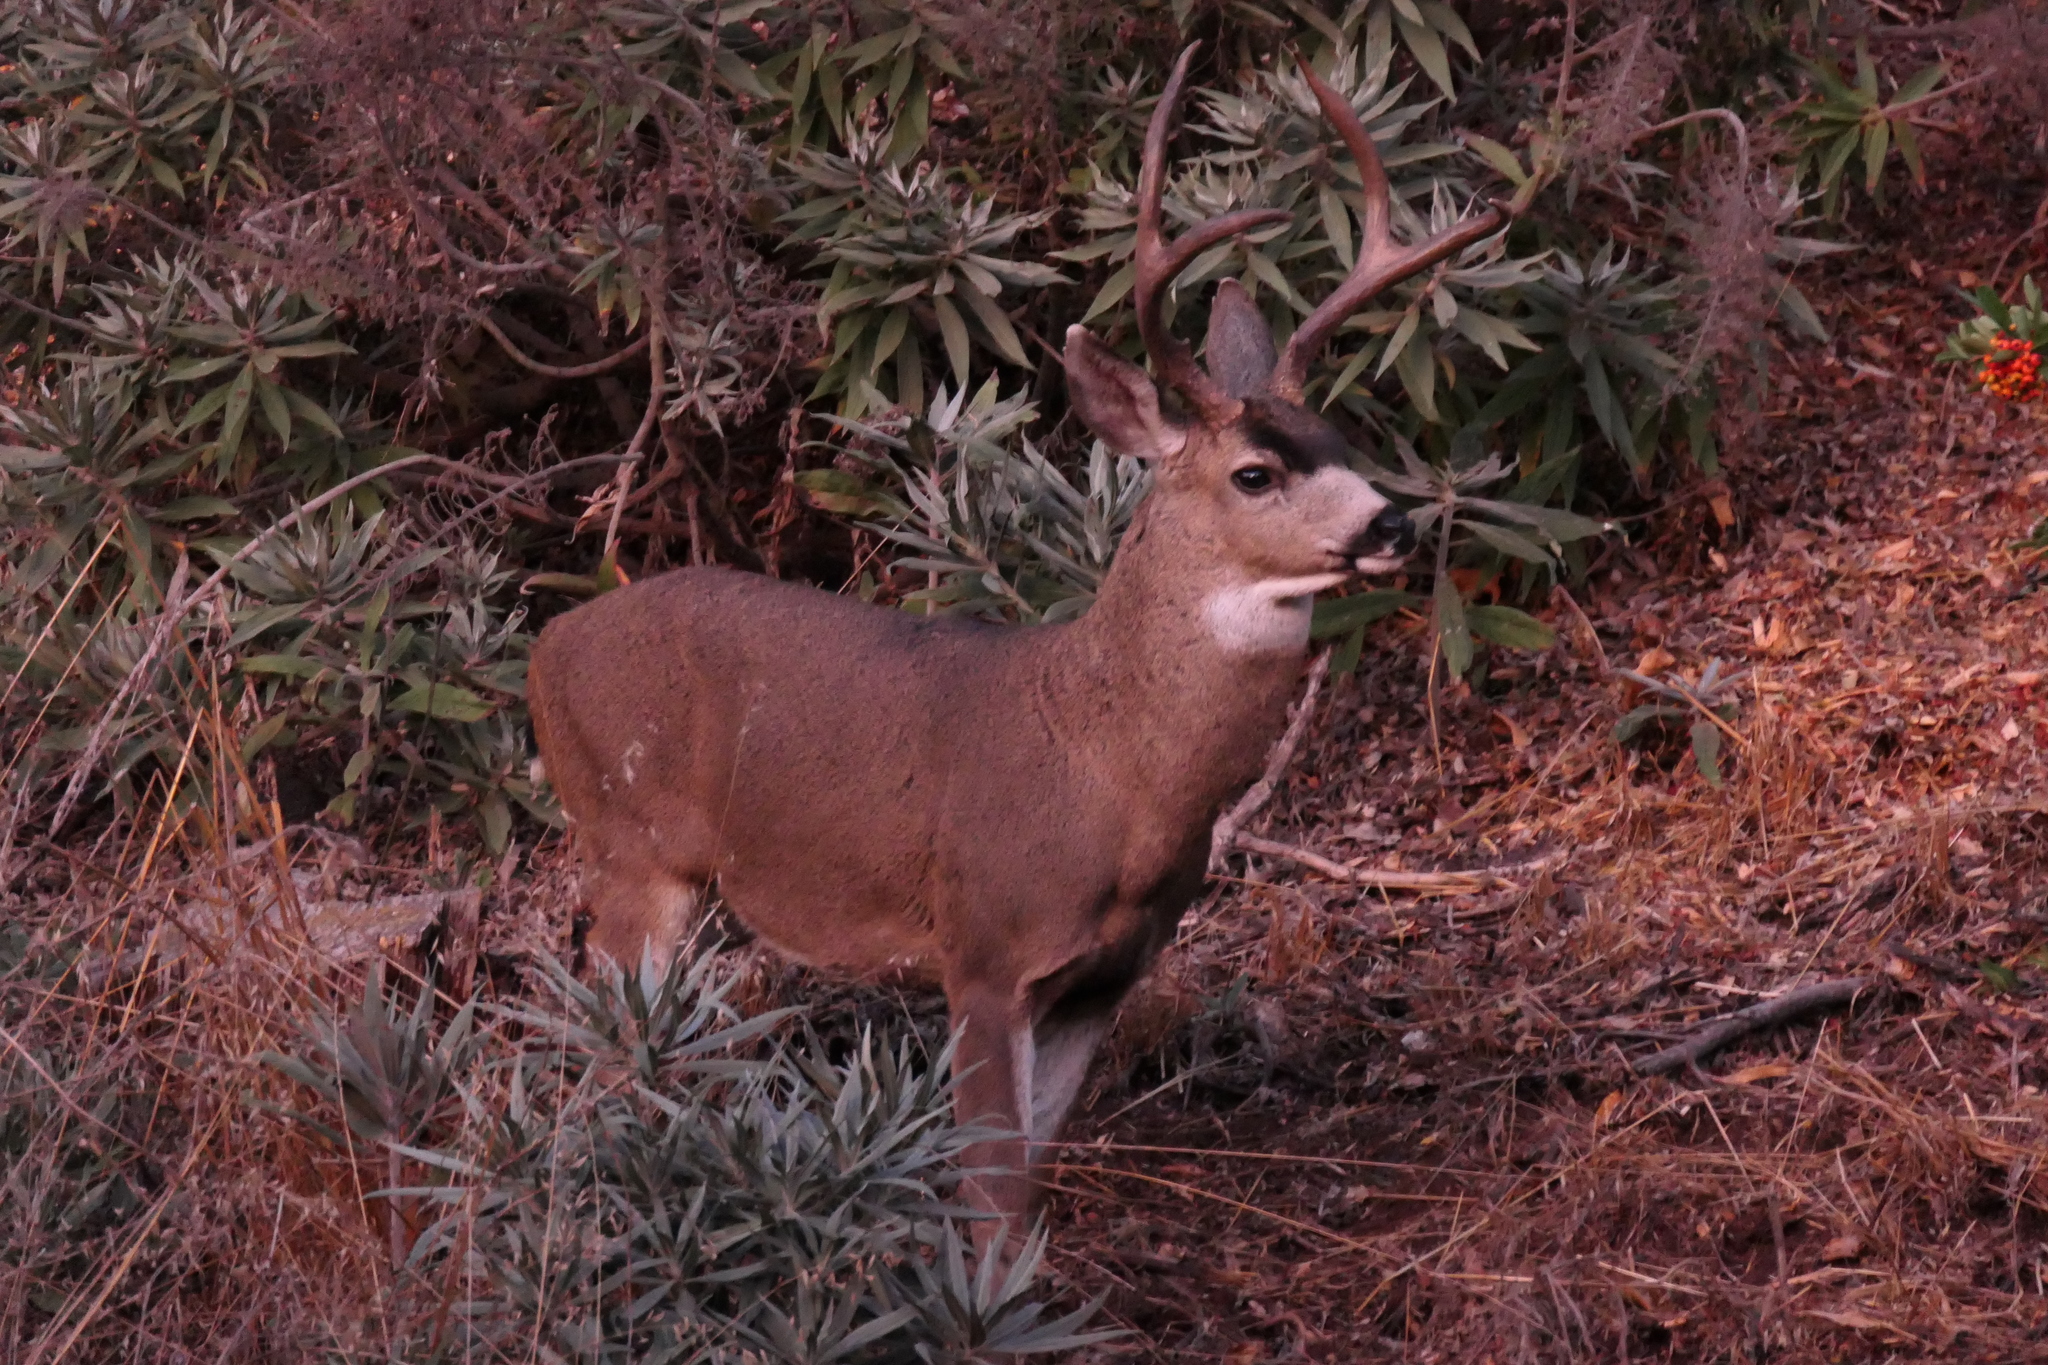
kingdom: Animalia
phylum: Chordata
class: Mammalia
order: Artiodactyla
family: Cervidae
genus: Odocoileus
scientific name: Odocoileus hemionus
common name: Mule deer
